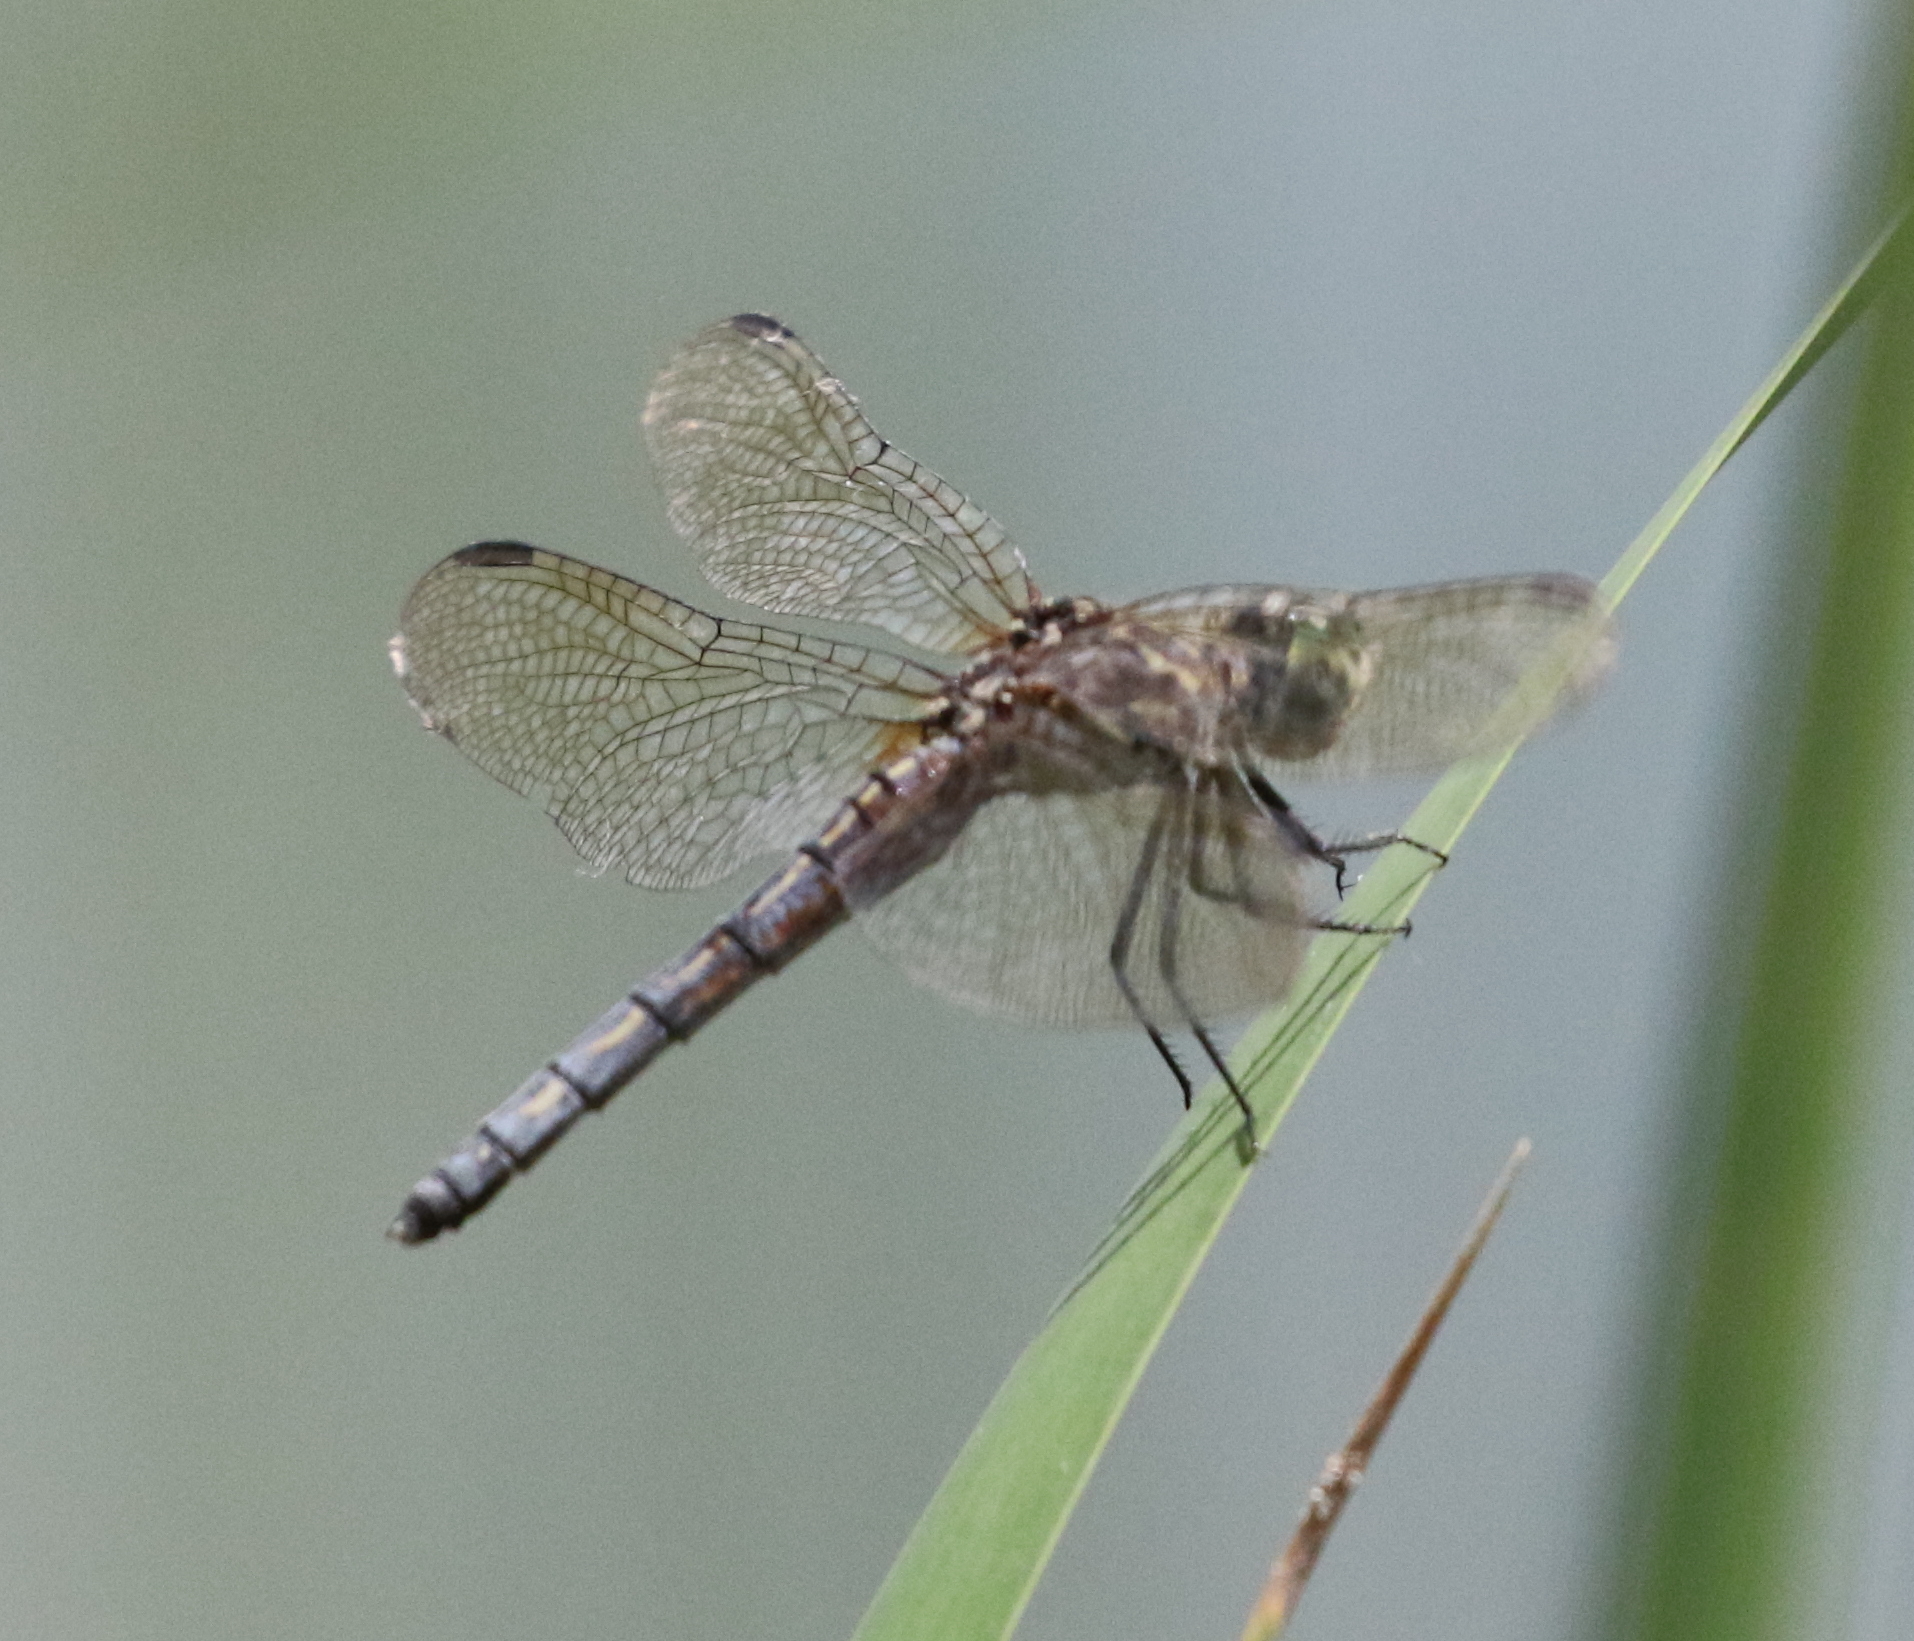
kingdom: Animalia
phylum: Arthropoda
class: Insecta
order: Odonata
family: Libellulidae
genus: Pachydiplax
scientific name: Pachydiplax longipennis
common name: Blue dasher
